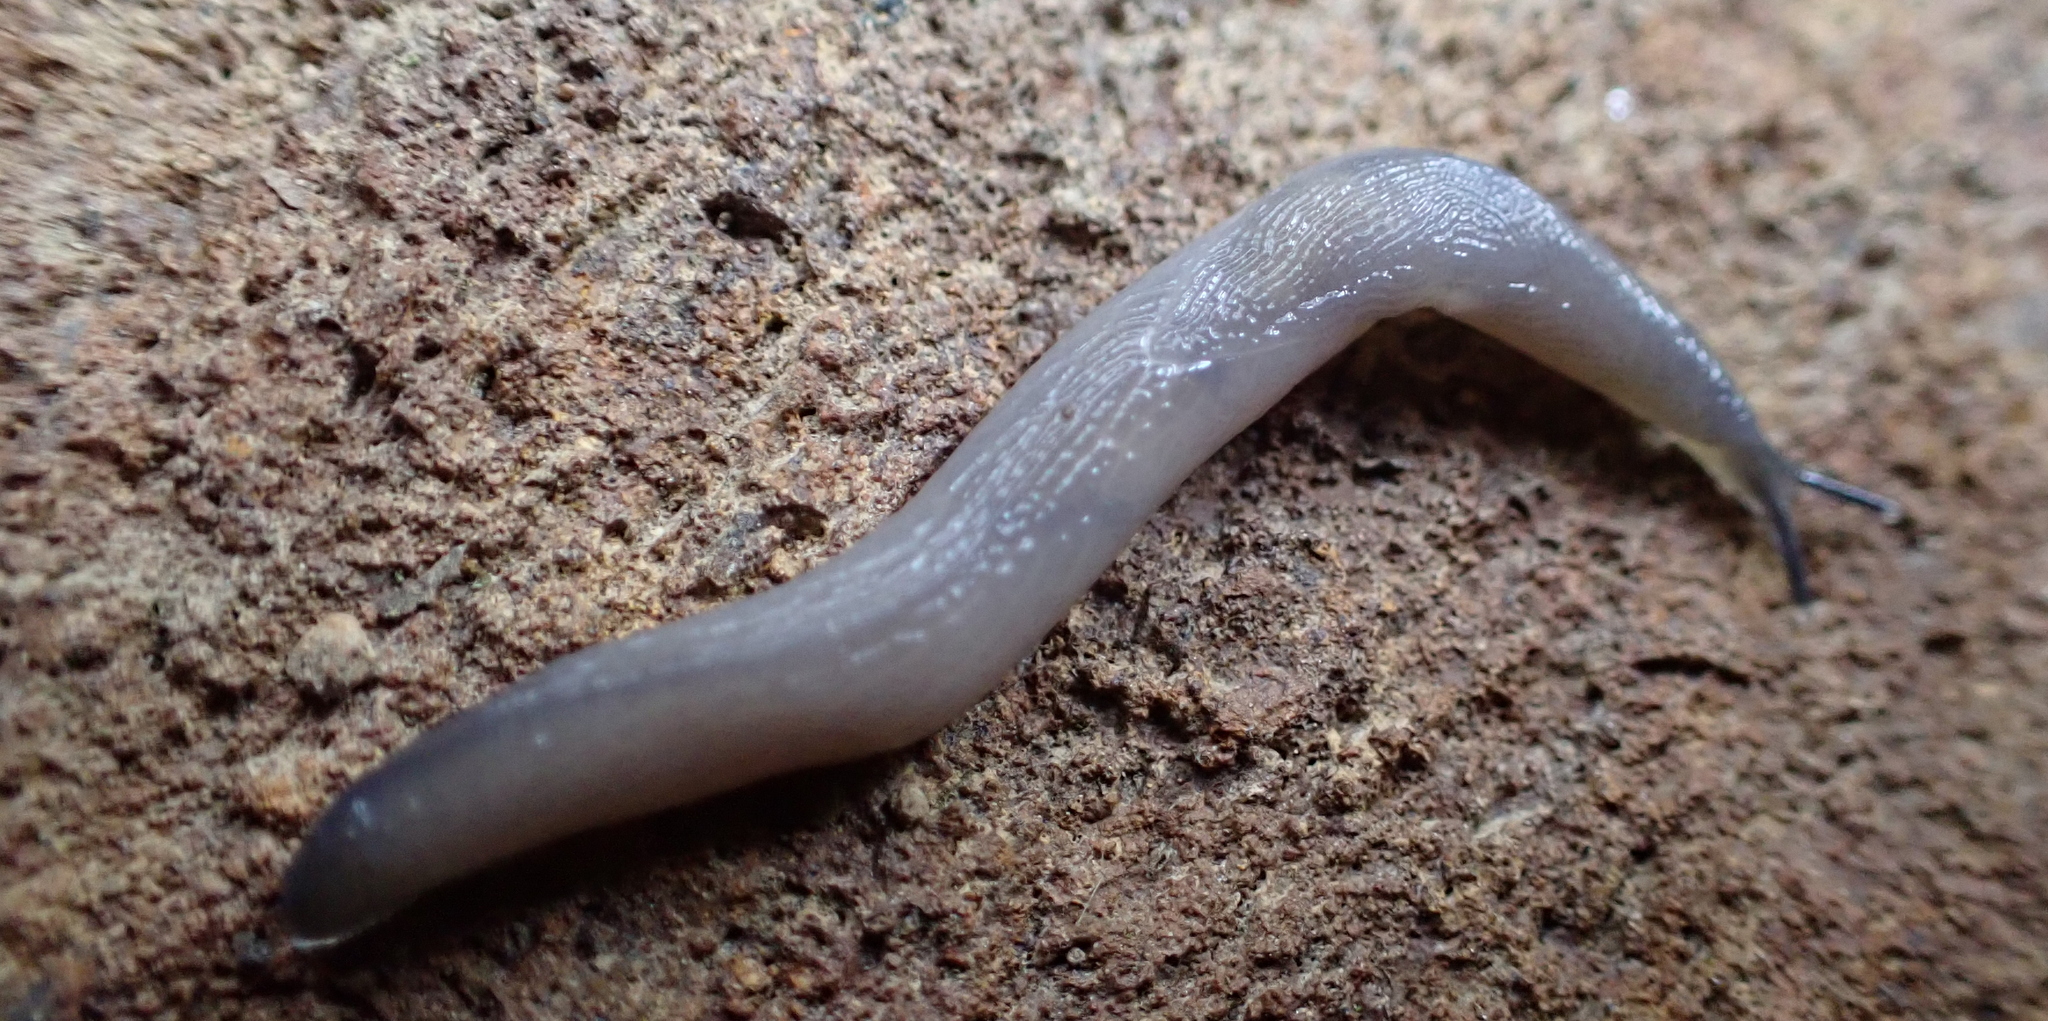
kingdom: Animalia
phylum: Mollusca
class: Gastropoda
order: Stylommatophora
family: Boettgerillidae
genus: Boettgerilla
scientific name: Boettgerilla pallens
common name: Worm slug
